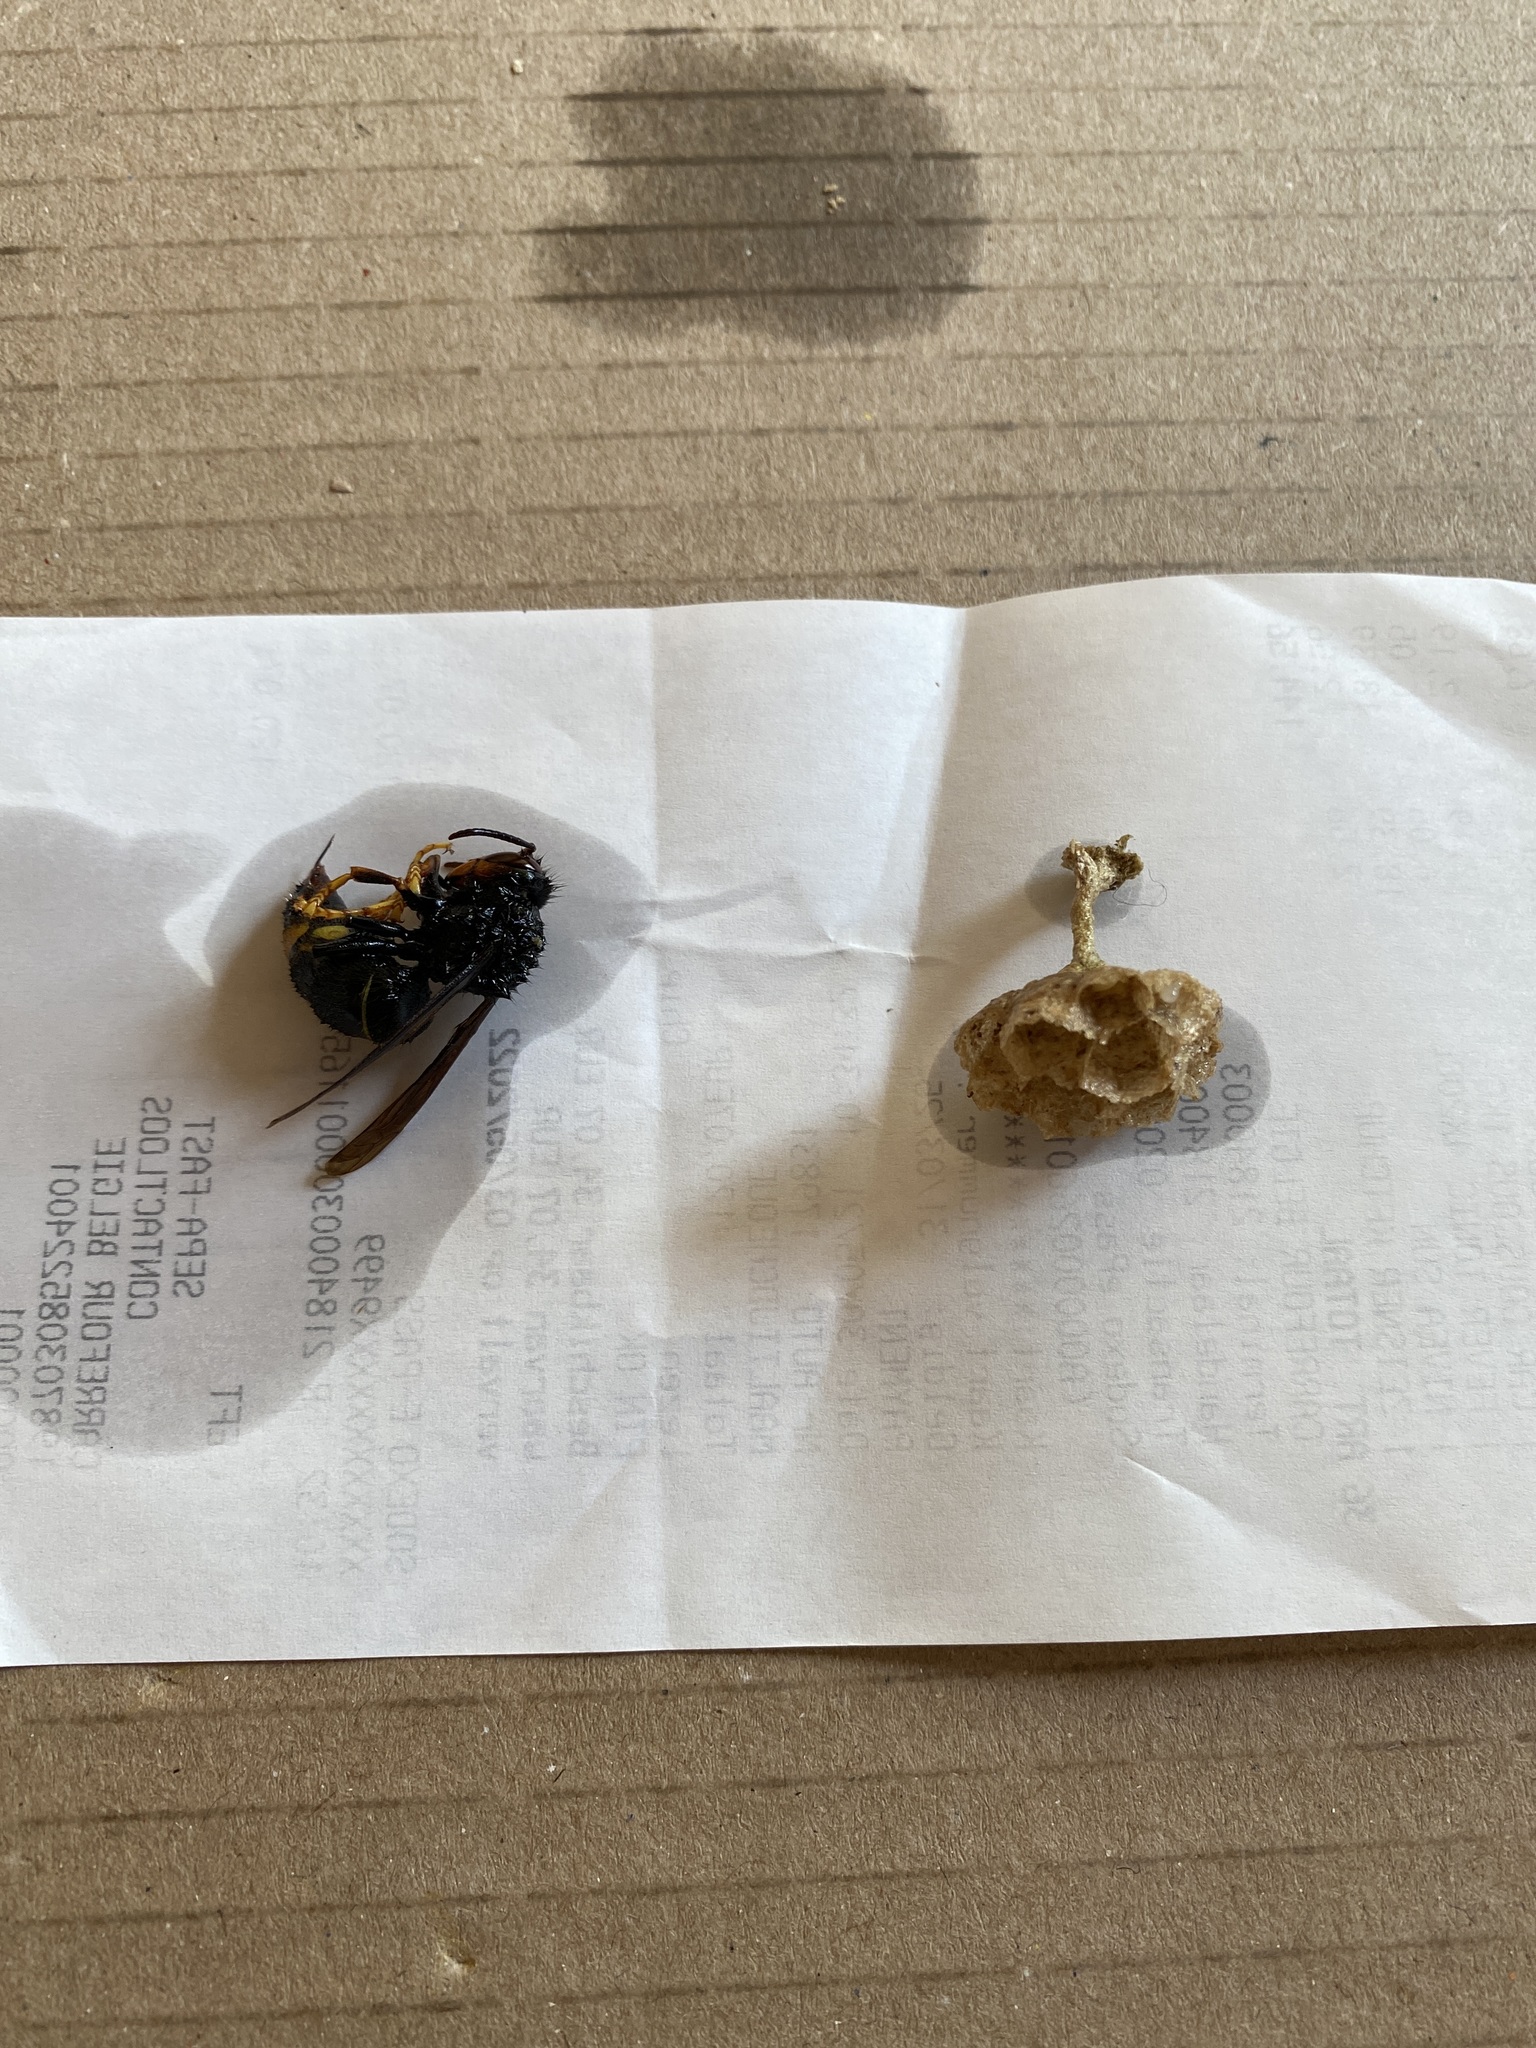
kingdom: Animalia
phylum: Arthropoda
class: Insecta
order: Hymenoptera
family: Vespidae
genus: Vespa
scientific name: Vespa velutina
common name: Asian hornet
